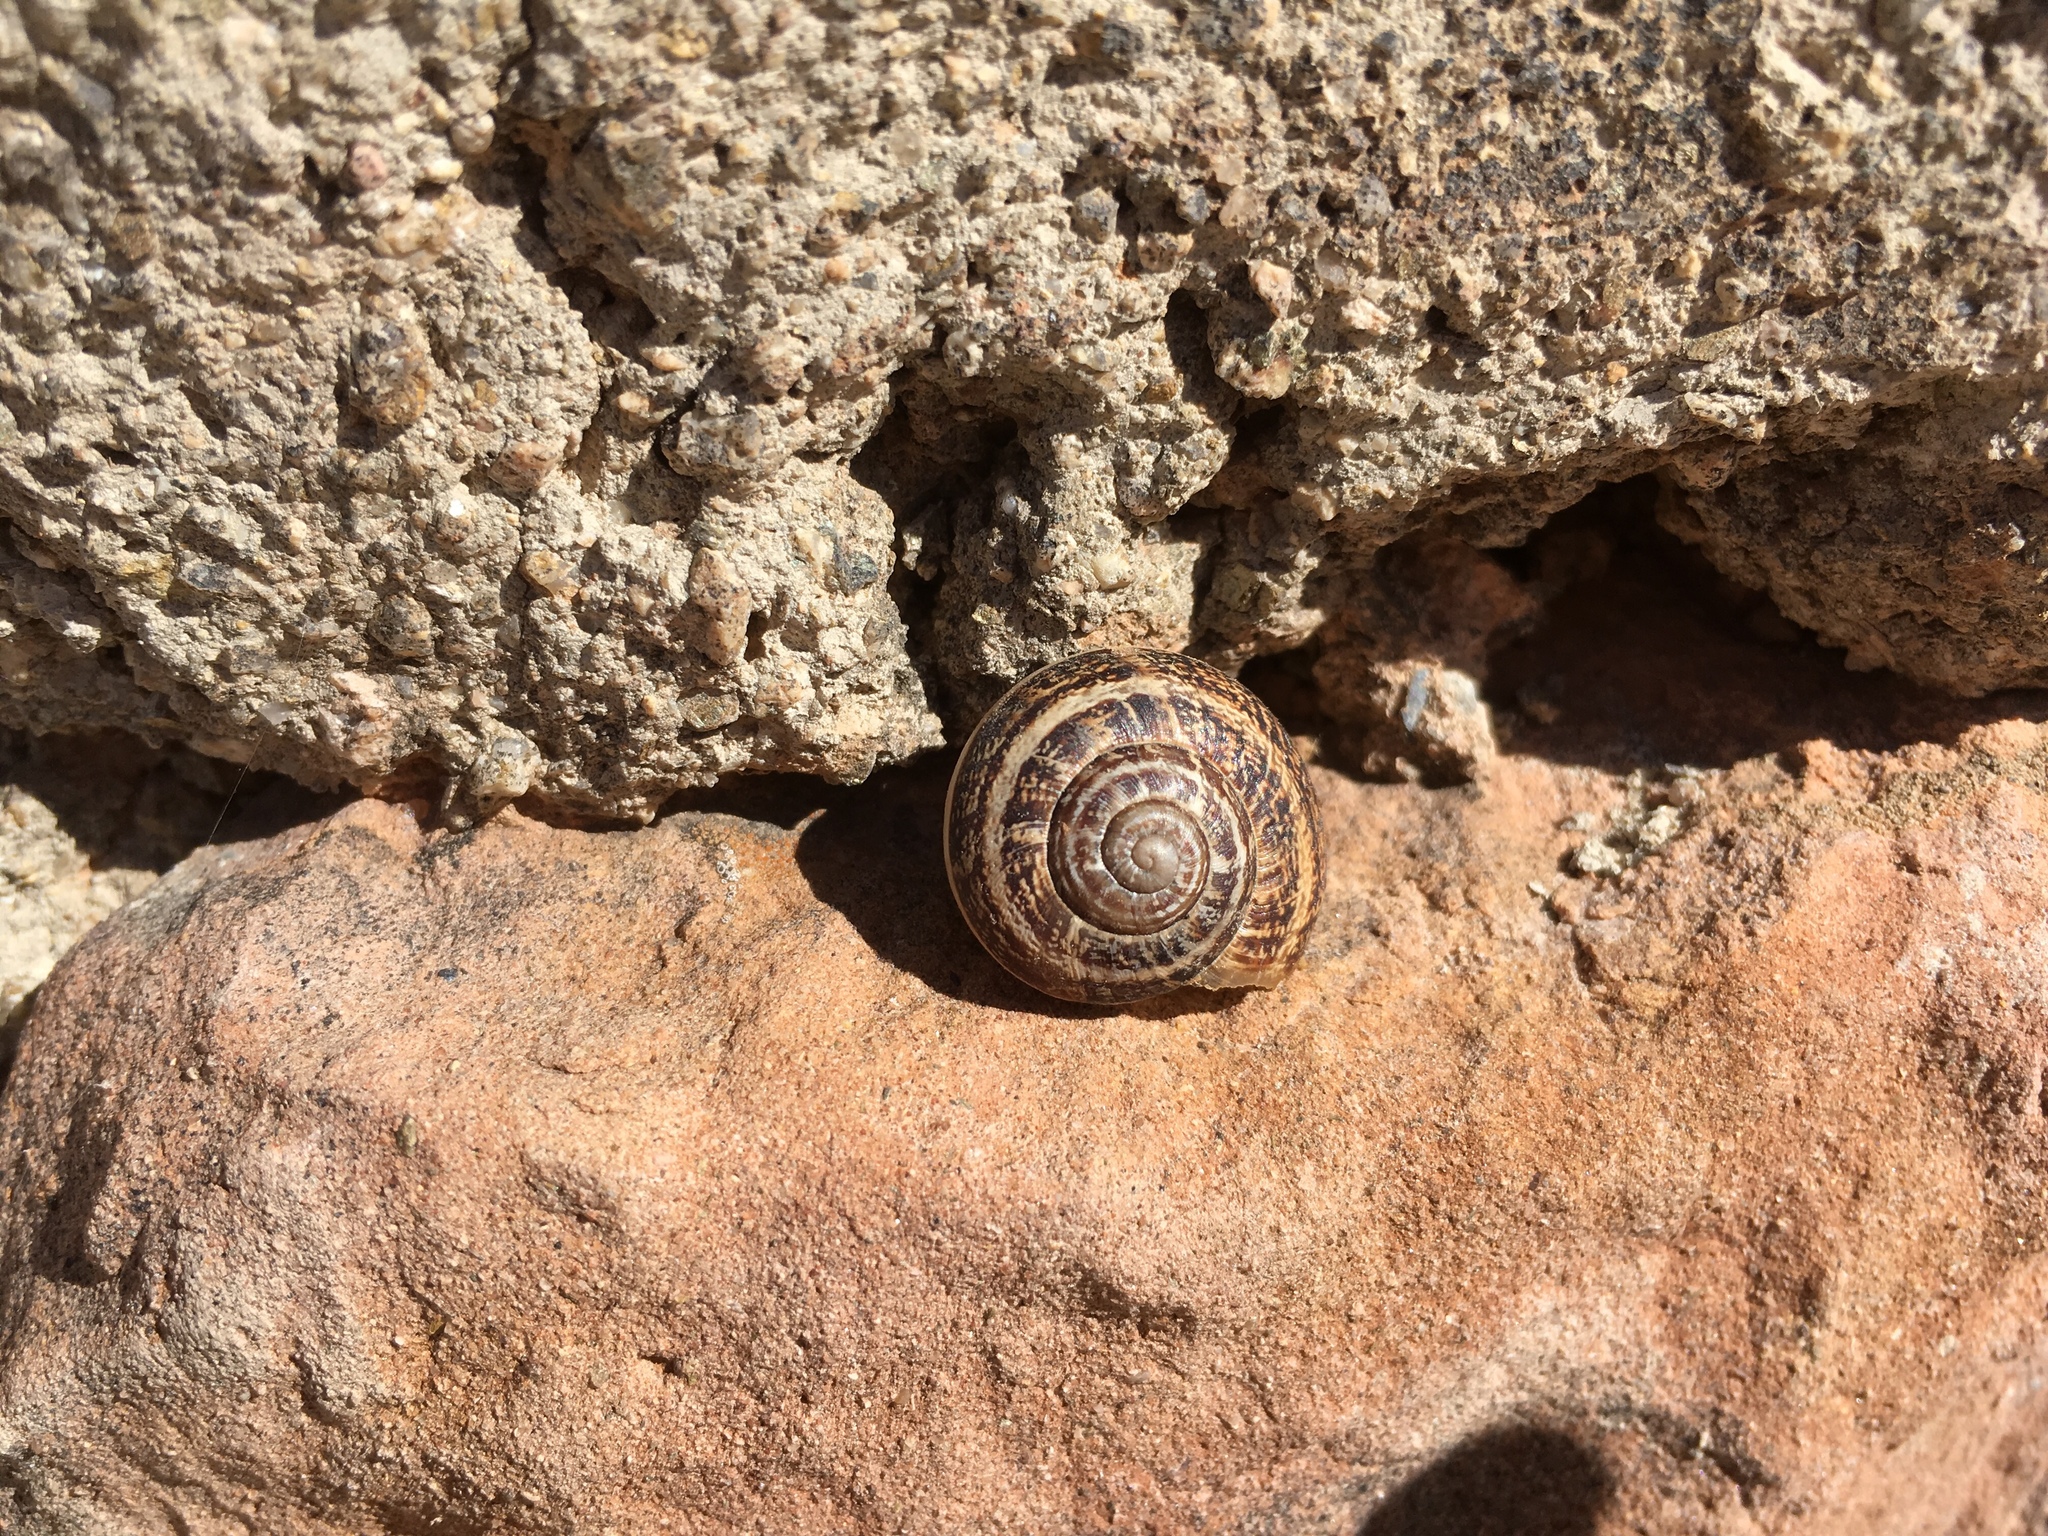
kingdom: Animalia
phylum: Mollusca
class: Gastropoda
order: Stylommatophora
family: Helicidae
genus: Eobania
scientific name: Eobania vermiculata
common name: Chocolateband snail
